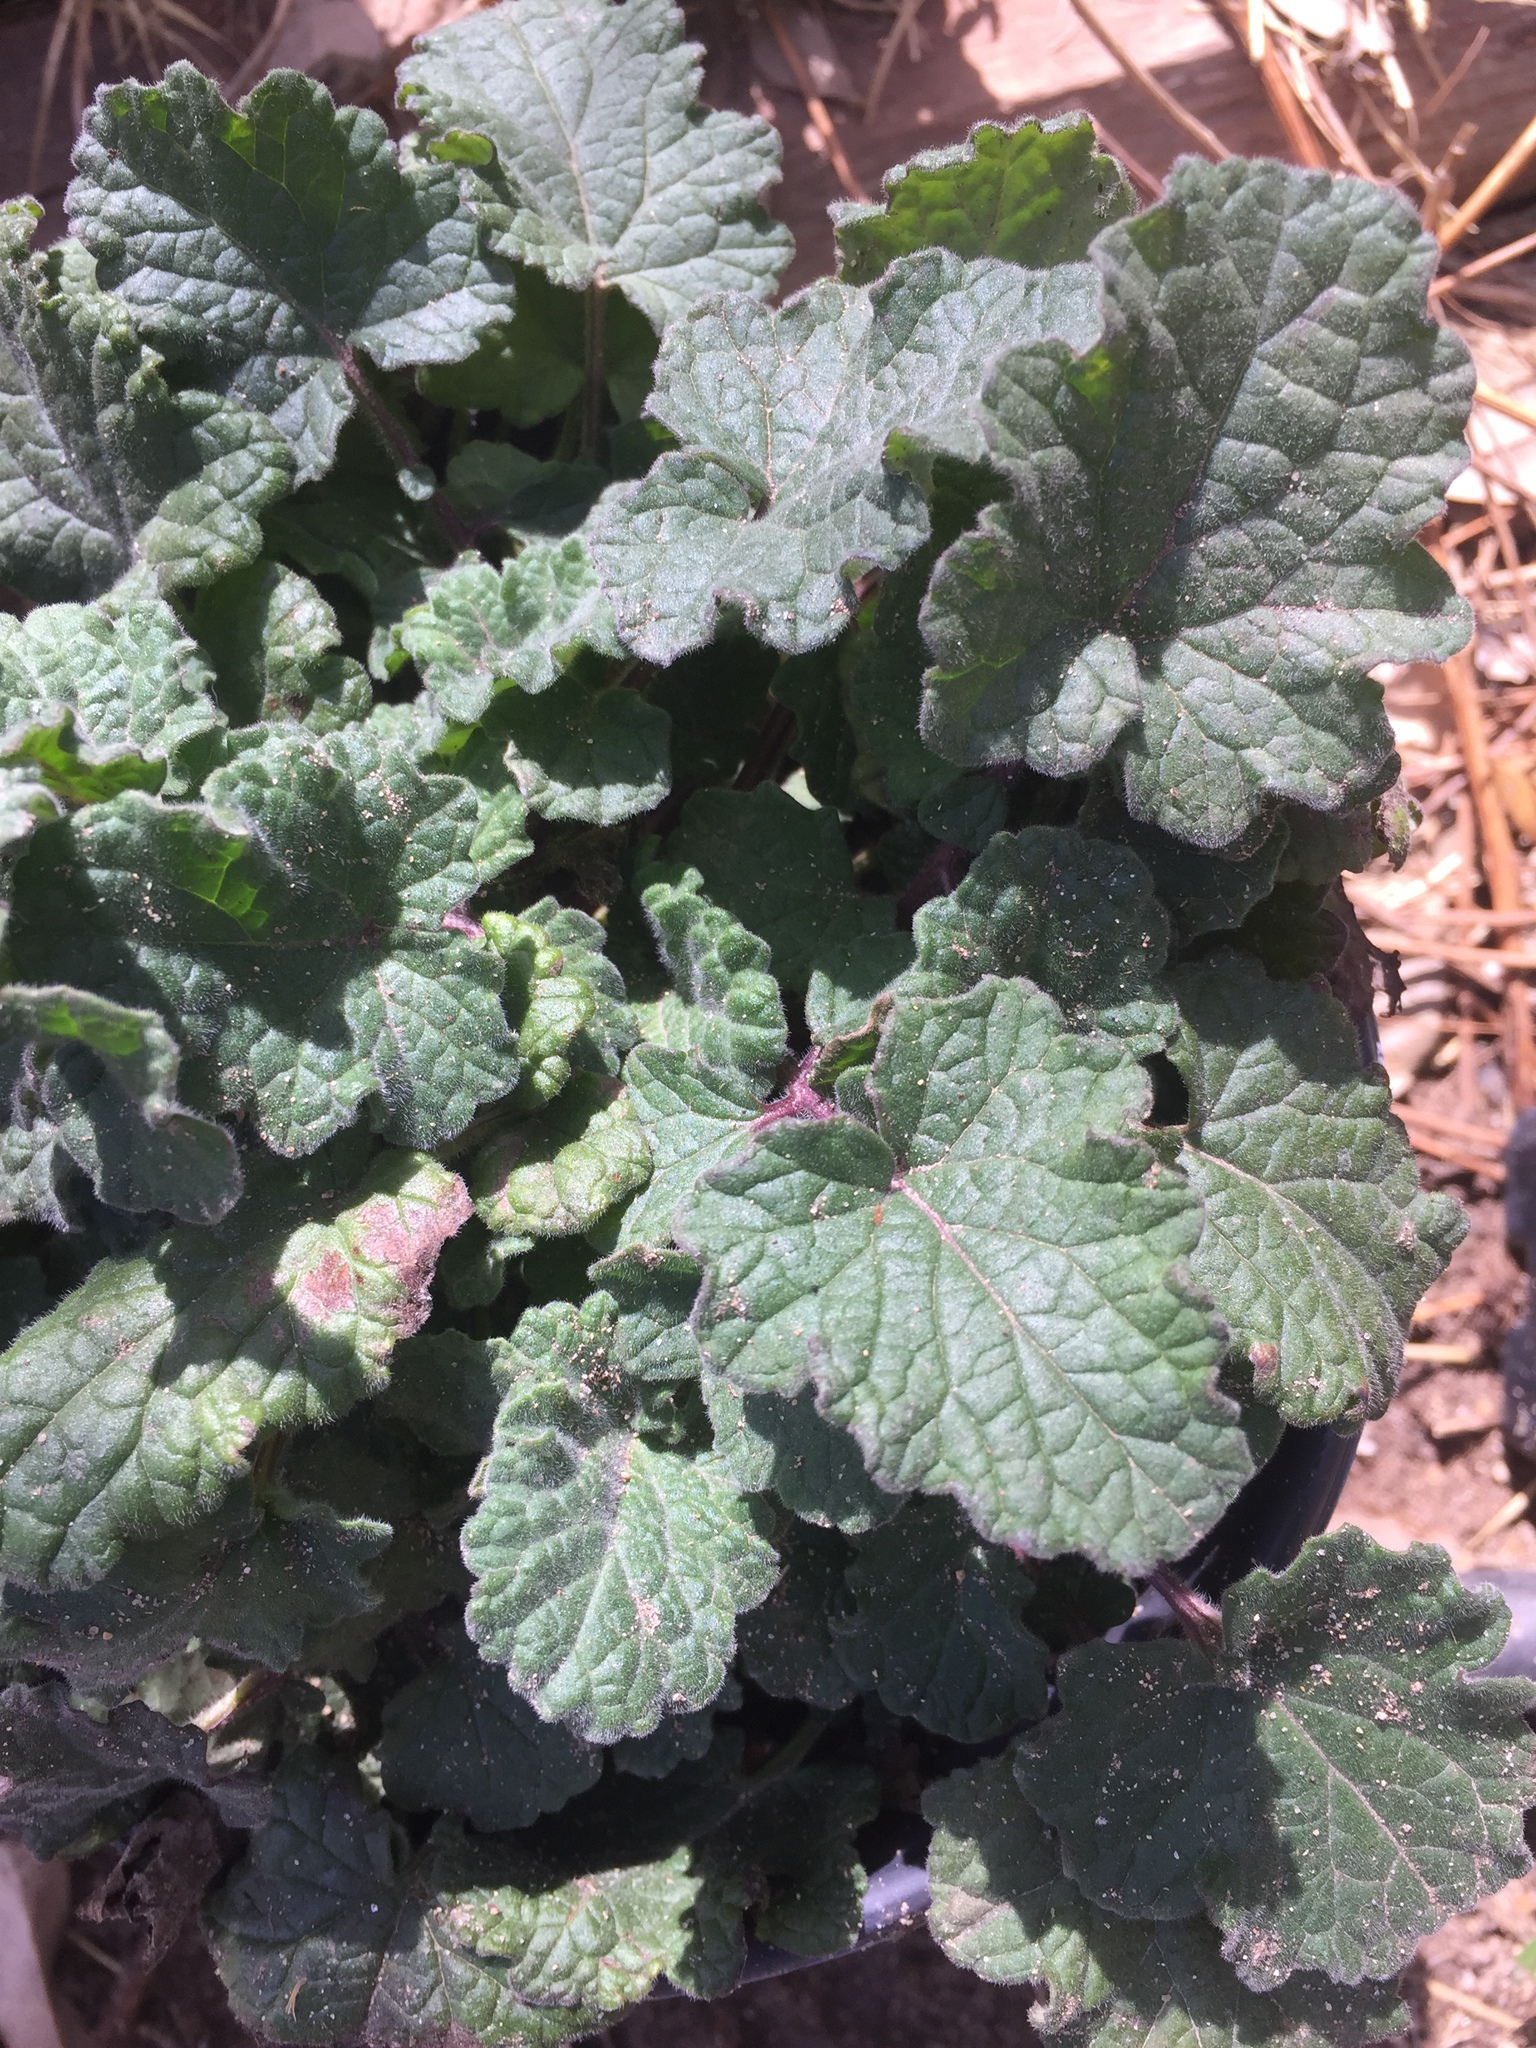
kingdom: Plantae
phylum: Tracheophyta
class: Magnoliopsida
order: Lamiales
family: Lamiaceae
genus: Salvia
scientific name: Salvia roemeriana
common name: Cedar sage
